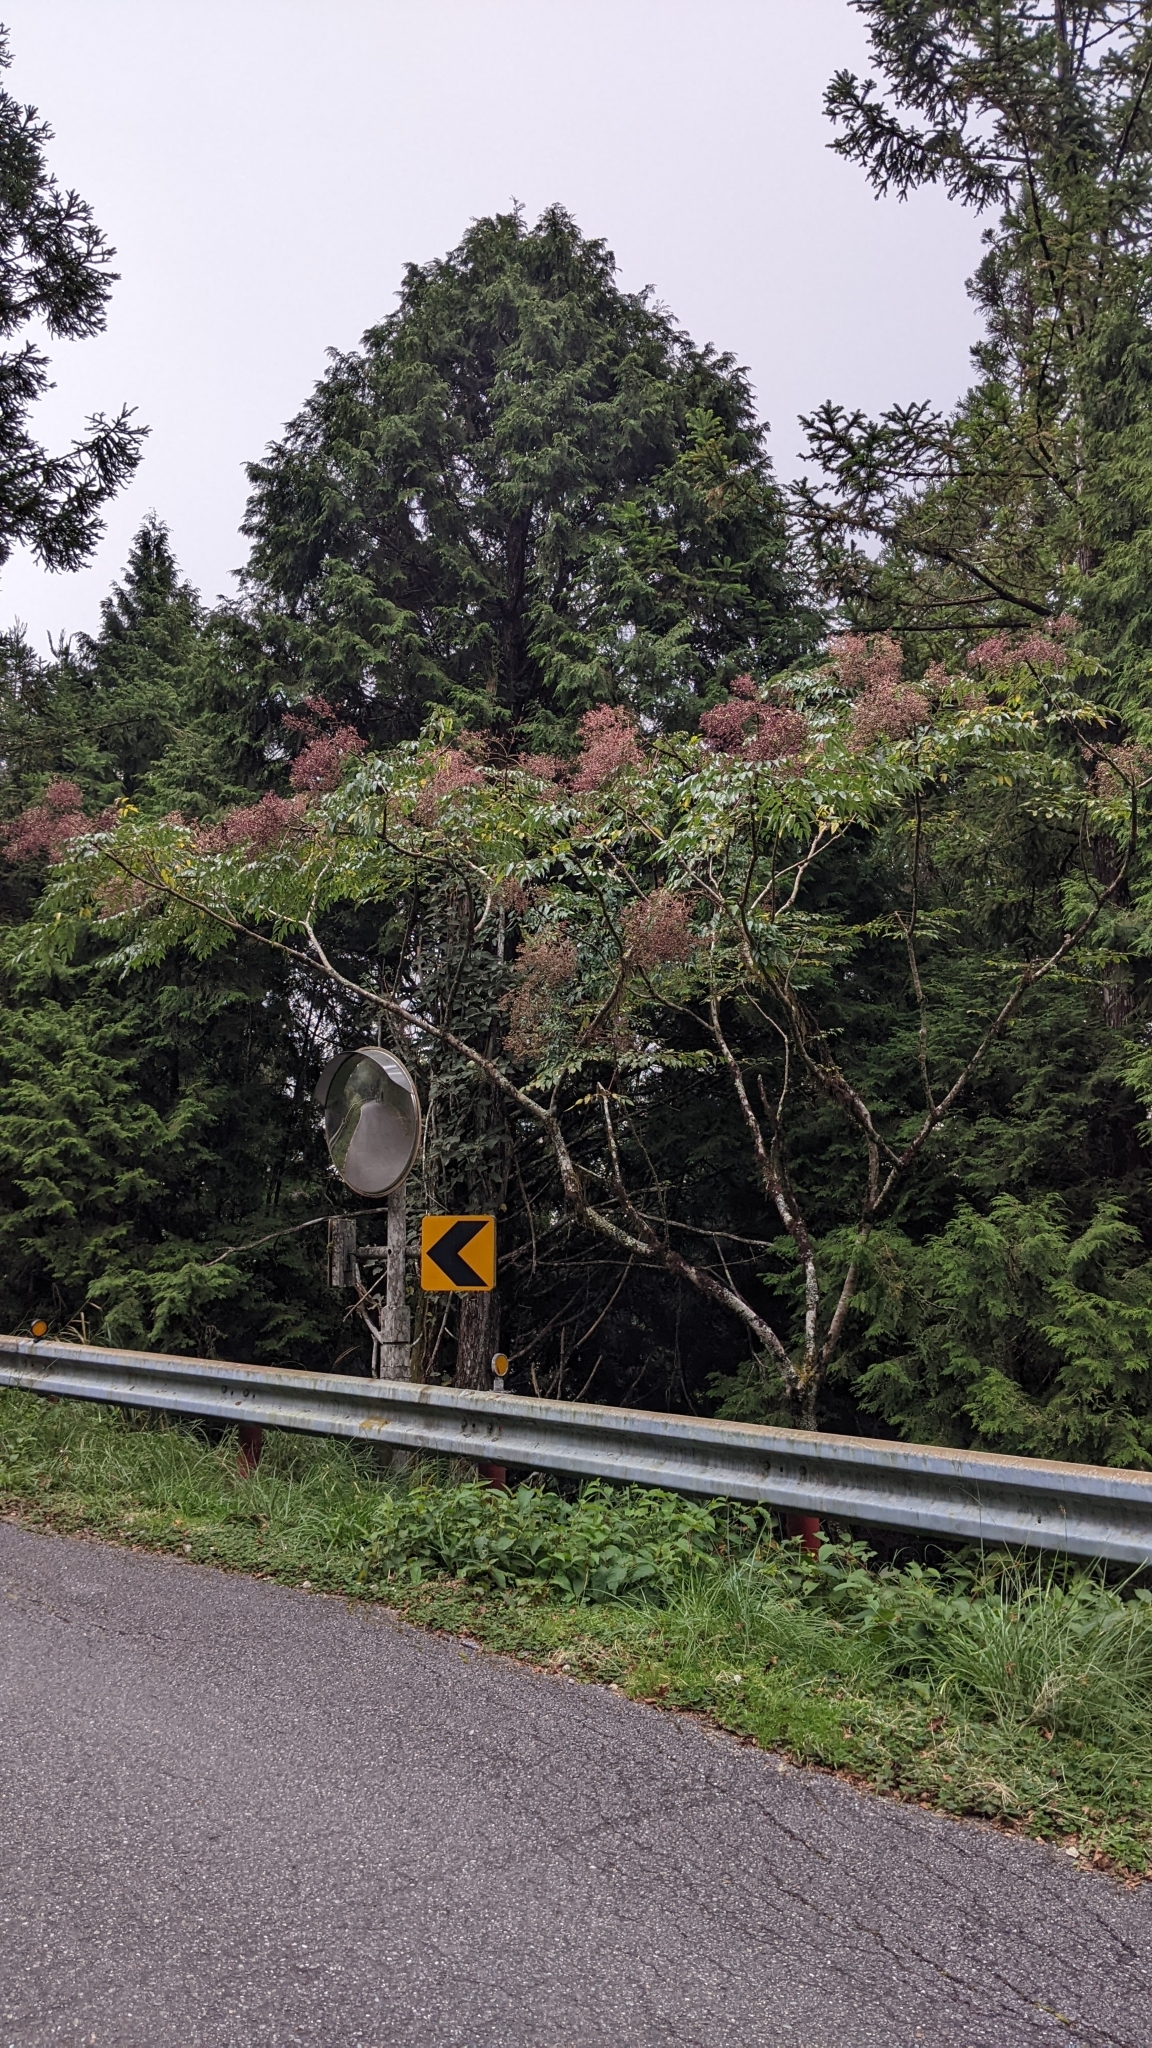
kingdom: Plantae
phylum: Tracheophyta
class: Magnoliopsida
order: Apiales
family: Araliaceae
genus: Aralia
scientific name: Aralia bipinnata
